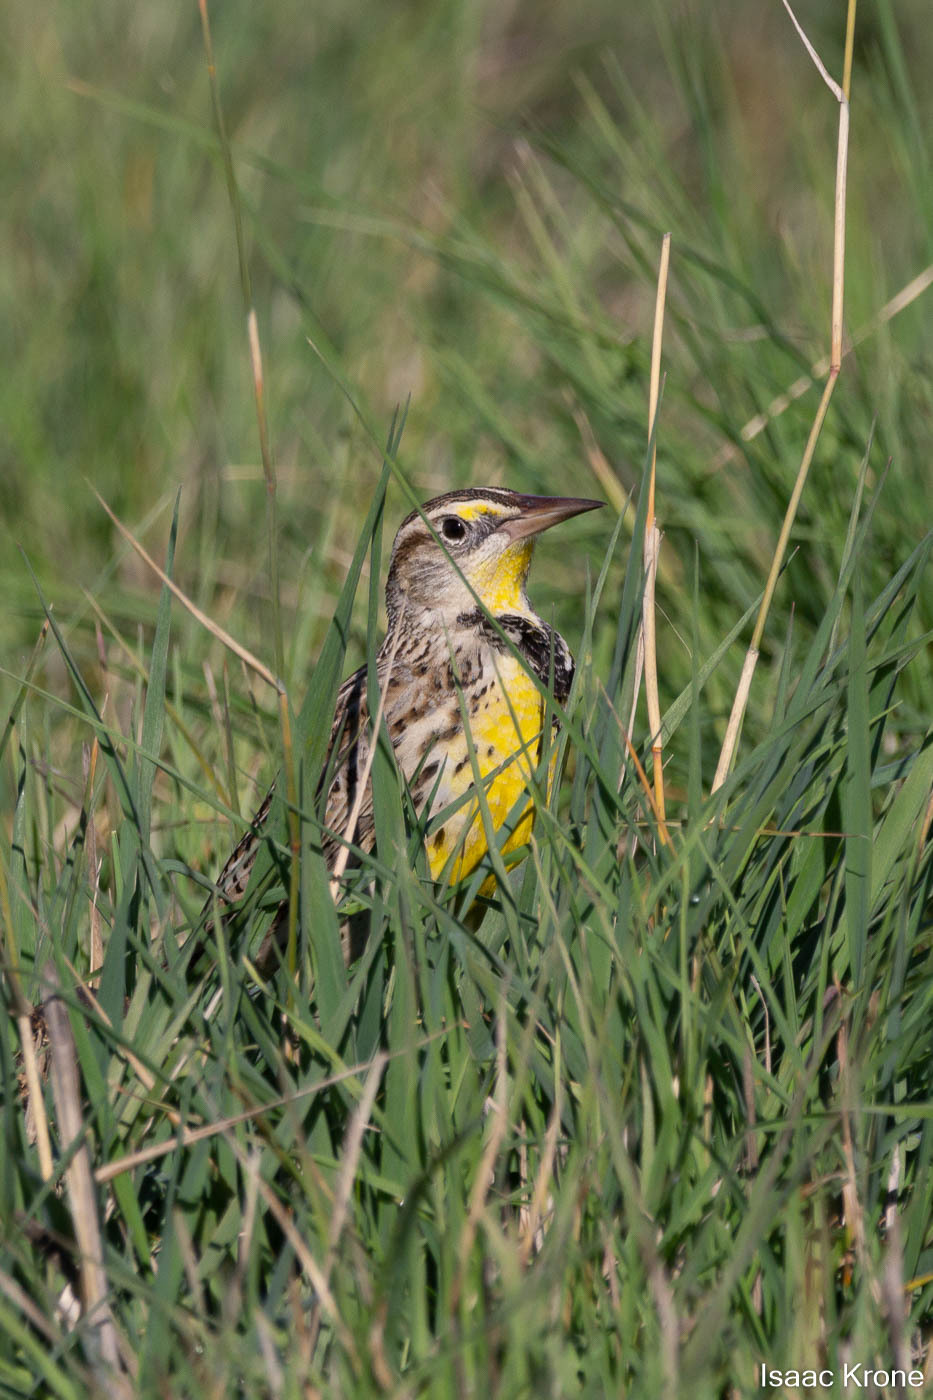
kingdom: Animalia
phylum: Chordata
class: Aves
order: Passeriformes
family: Icteridae
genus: Sturnella
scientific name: Sturnella neglecta
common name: Western meadowlark
